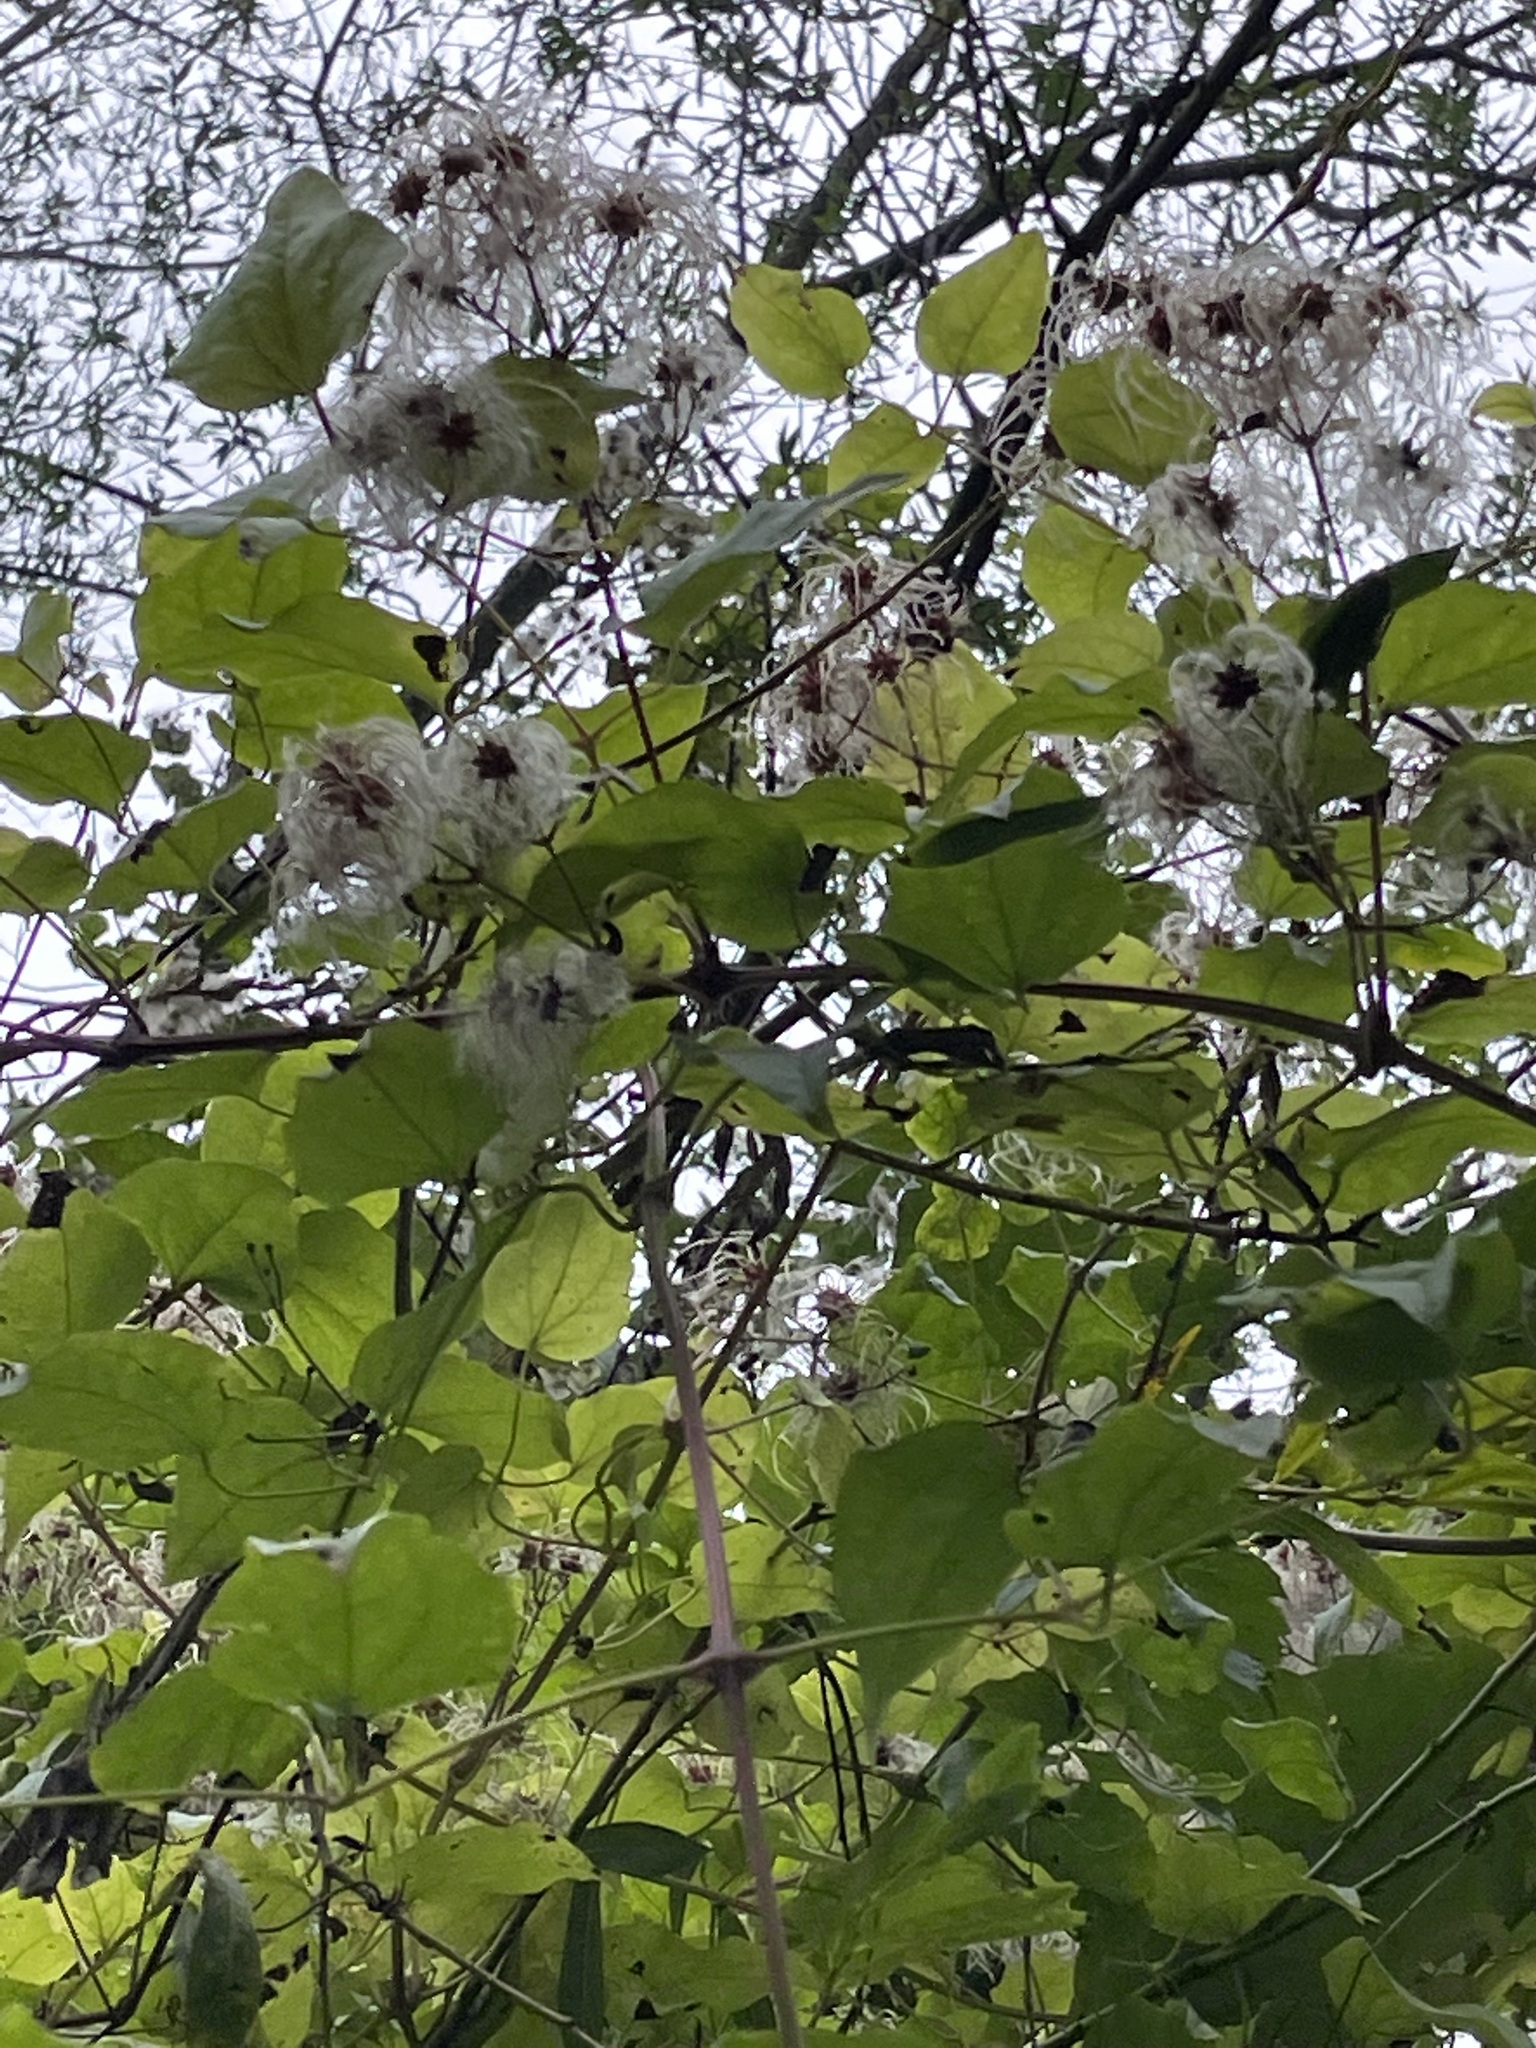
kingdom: Plantae
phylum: Tracheophyta
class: Magnoliopsida
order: Ranunculales
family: Ranunculaceae
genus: Clematis
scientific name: Clematis vitalba
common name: Evergreen clematis
